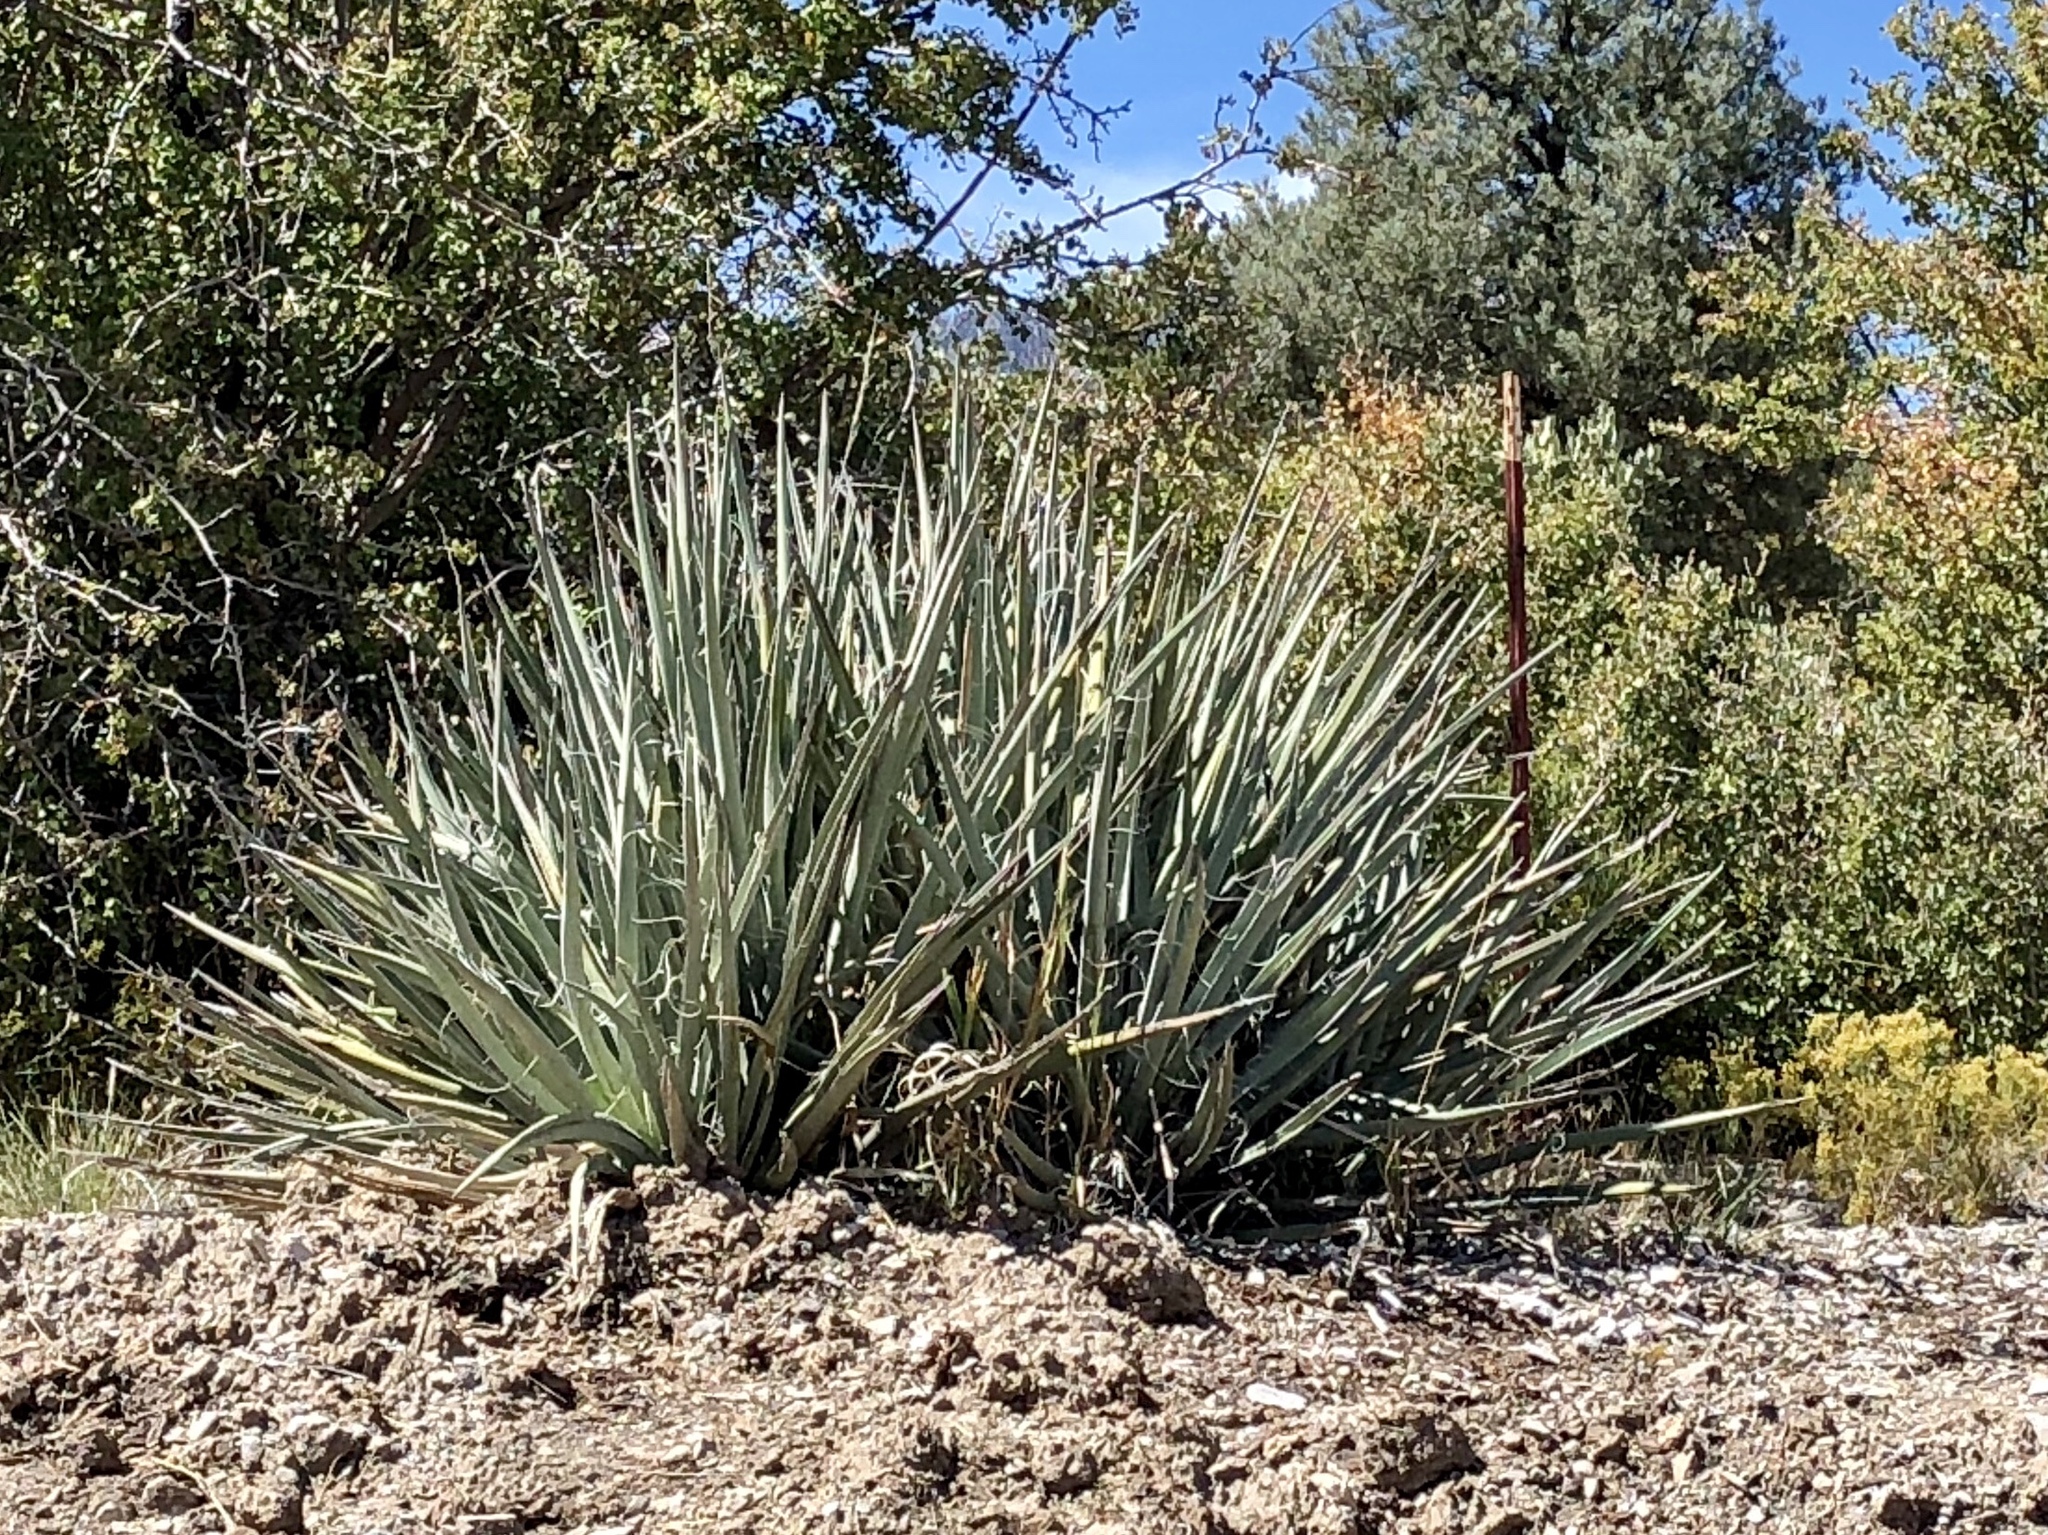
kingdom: Plantae
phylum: Tracheophyta
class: Liliopsida
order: Asparagales
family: Asparagaceae
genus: Yucca
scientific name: Yucca baccata
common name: Banana yucca
